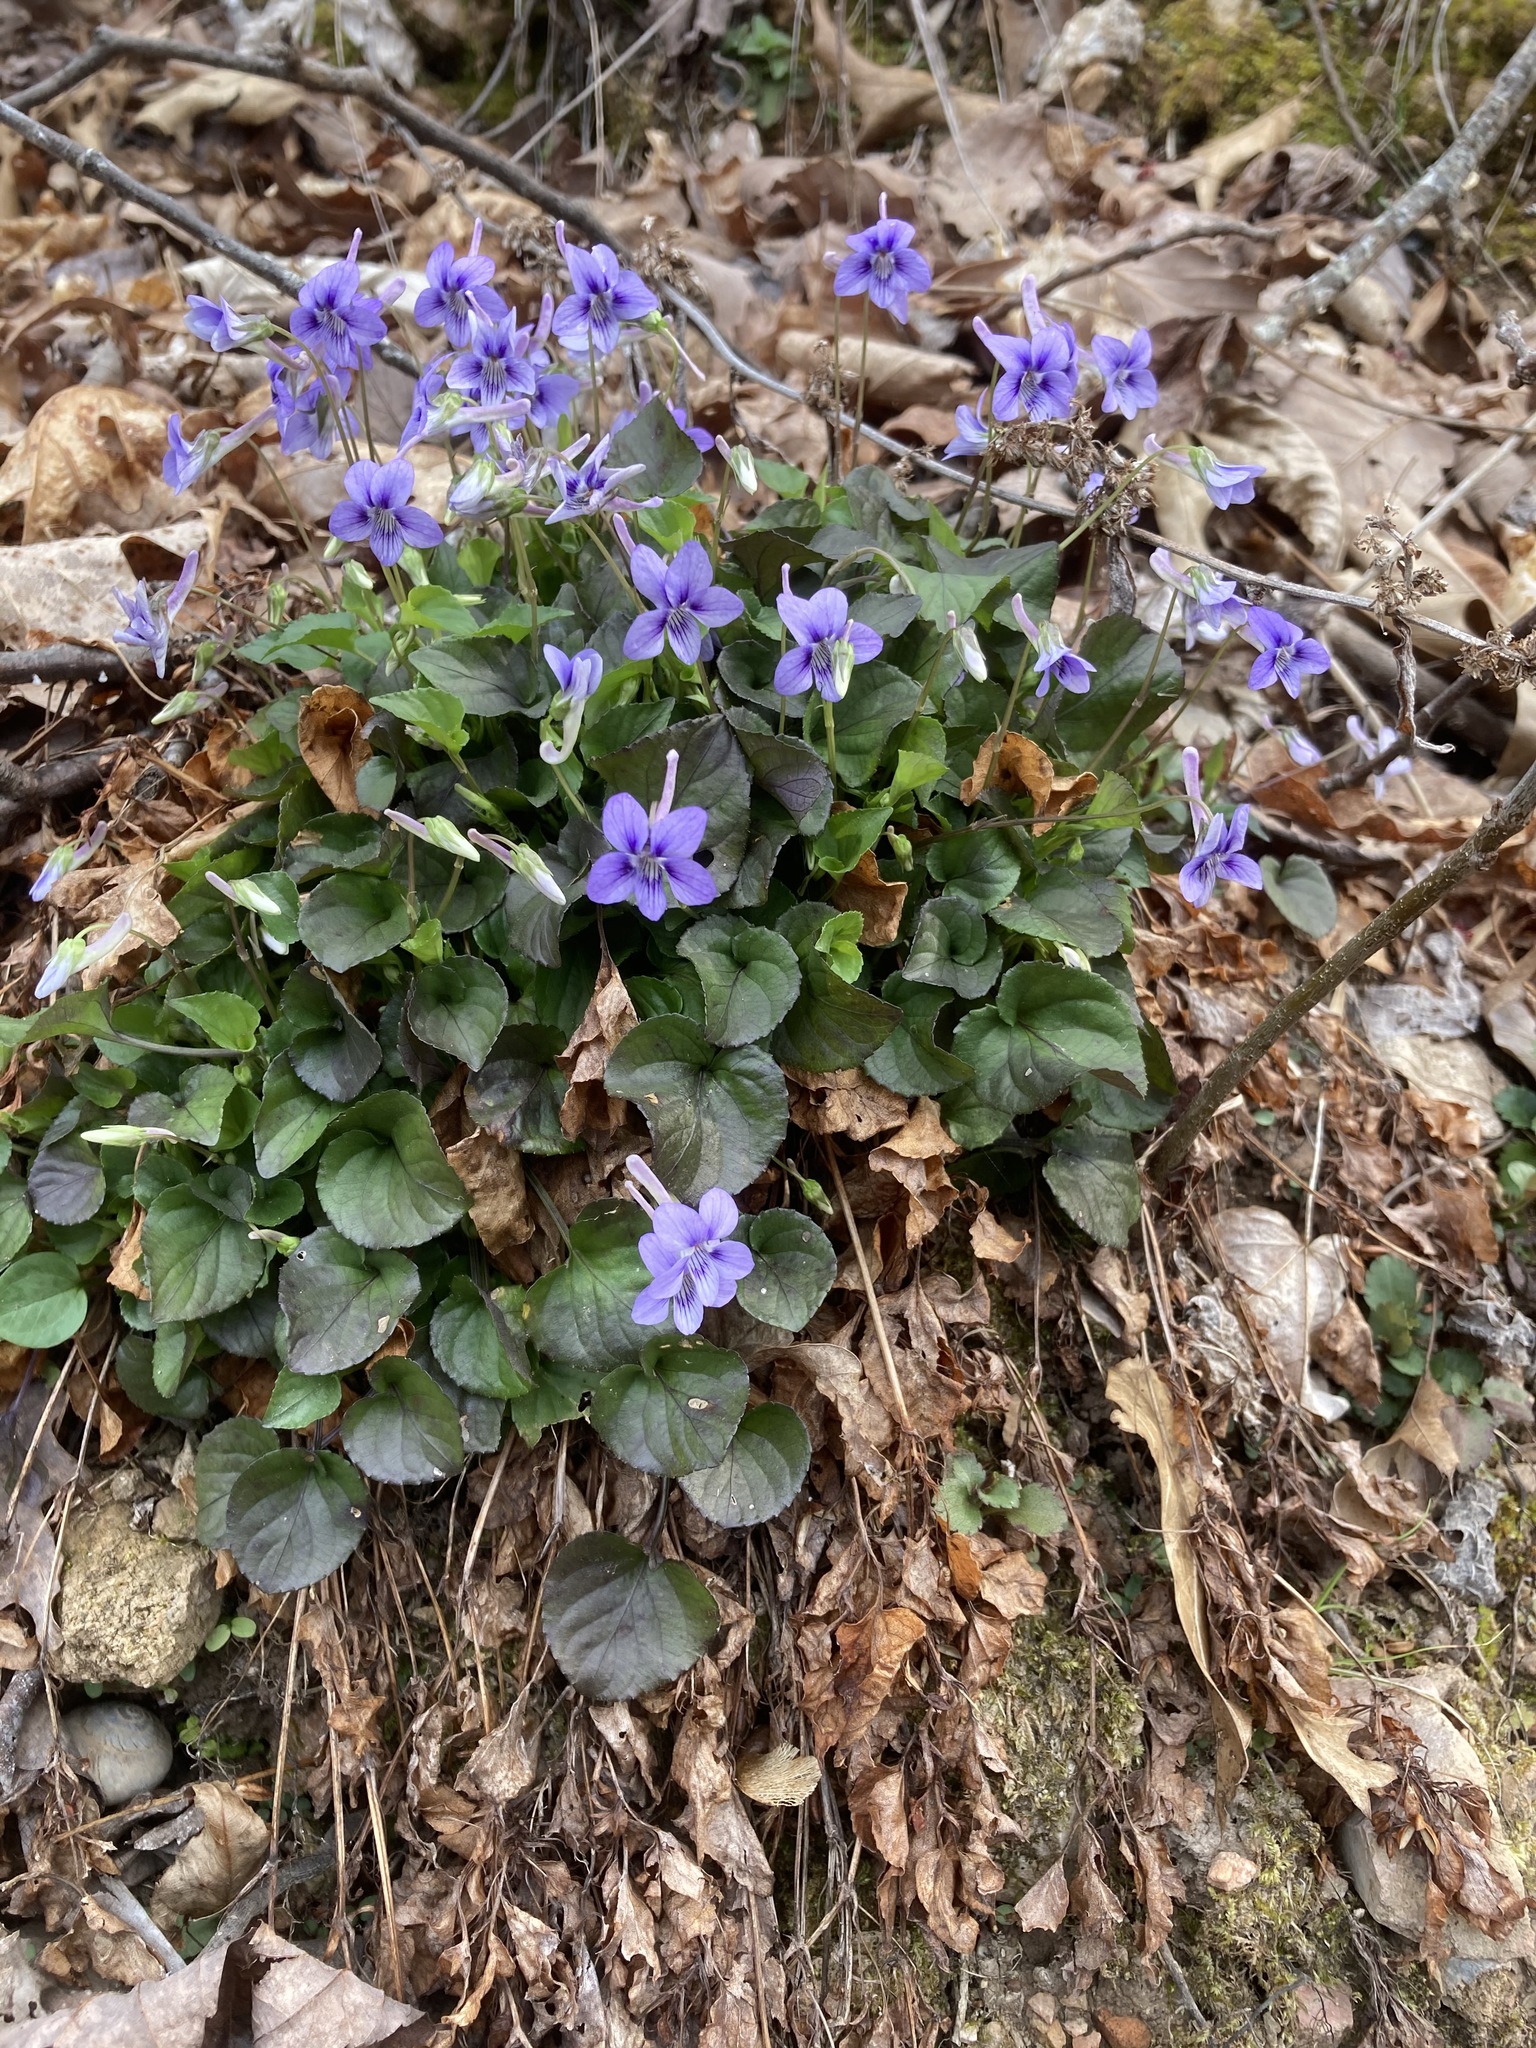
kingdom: Plantae
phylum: Tracheophyta
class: Magnoliopsida
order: Malpighiales
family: Violaceae
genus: Viola
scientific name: Viola rostrata
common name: Long-spur violet
